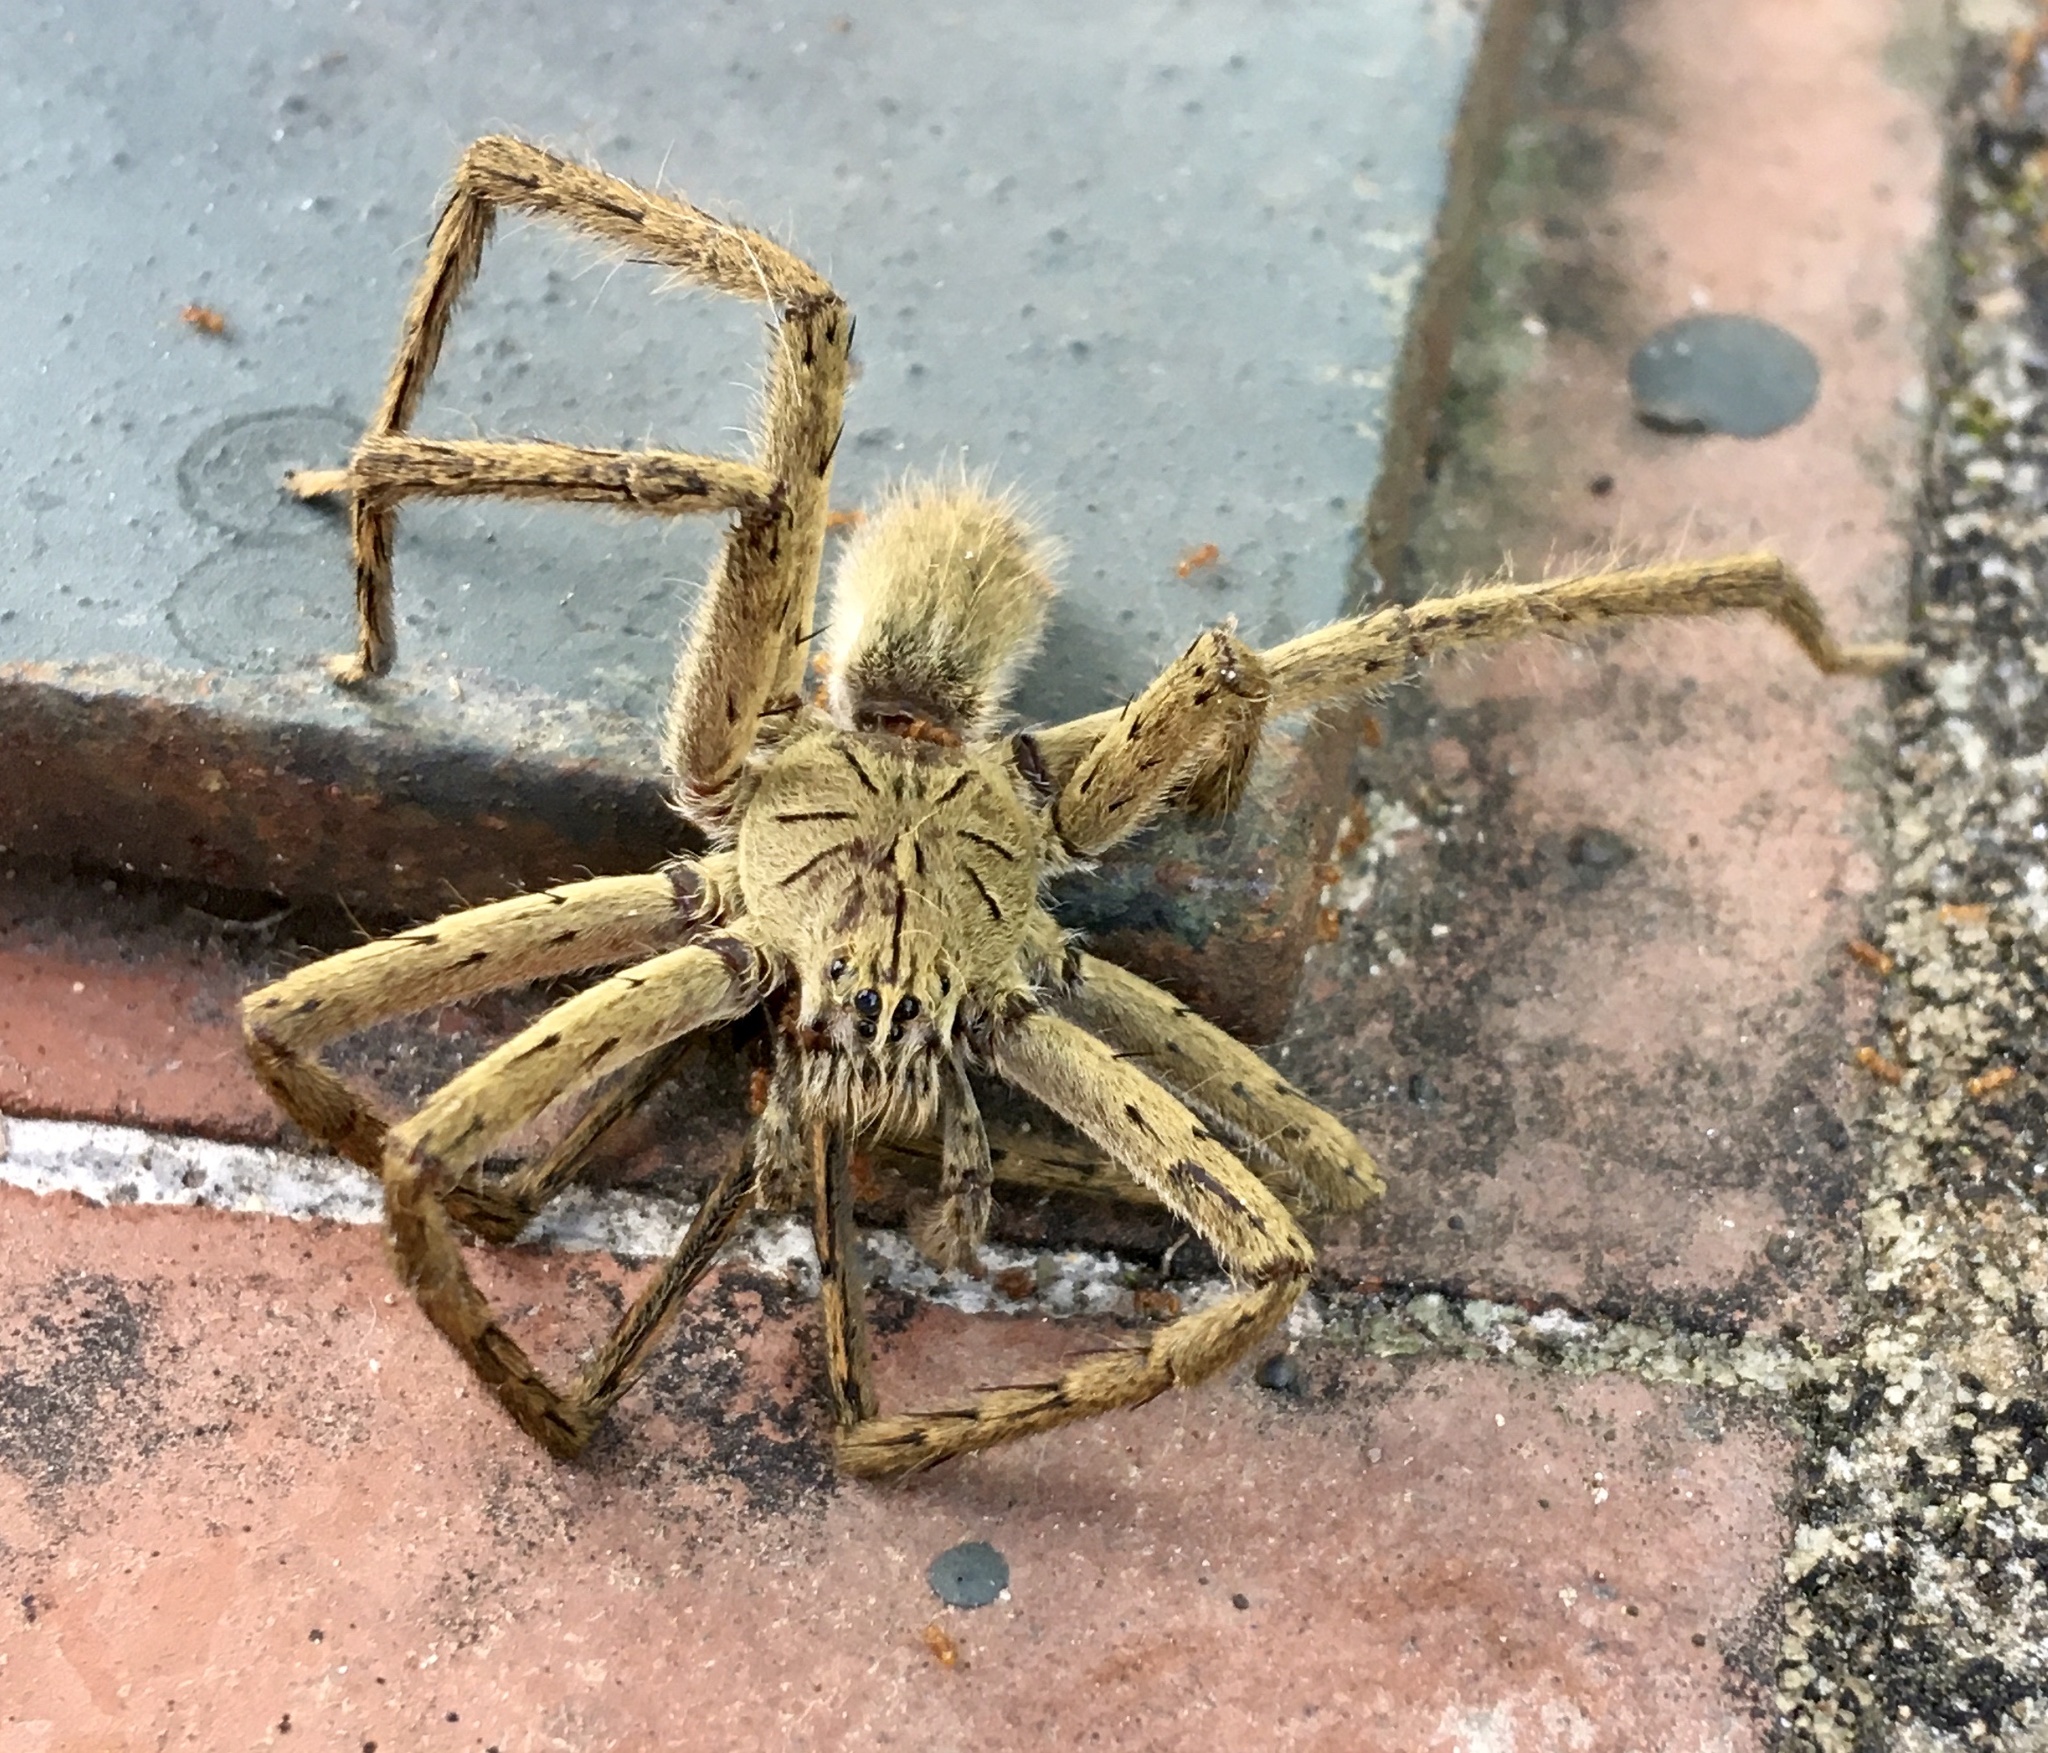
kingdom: Animalia
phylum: Arthropoda
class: Arachnida
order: Araneae
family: Trechaleidae
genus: Cupiennius
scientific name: Cupiennius coccineus
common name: Wandering spiders
